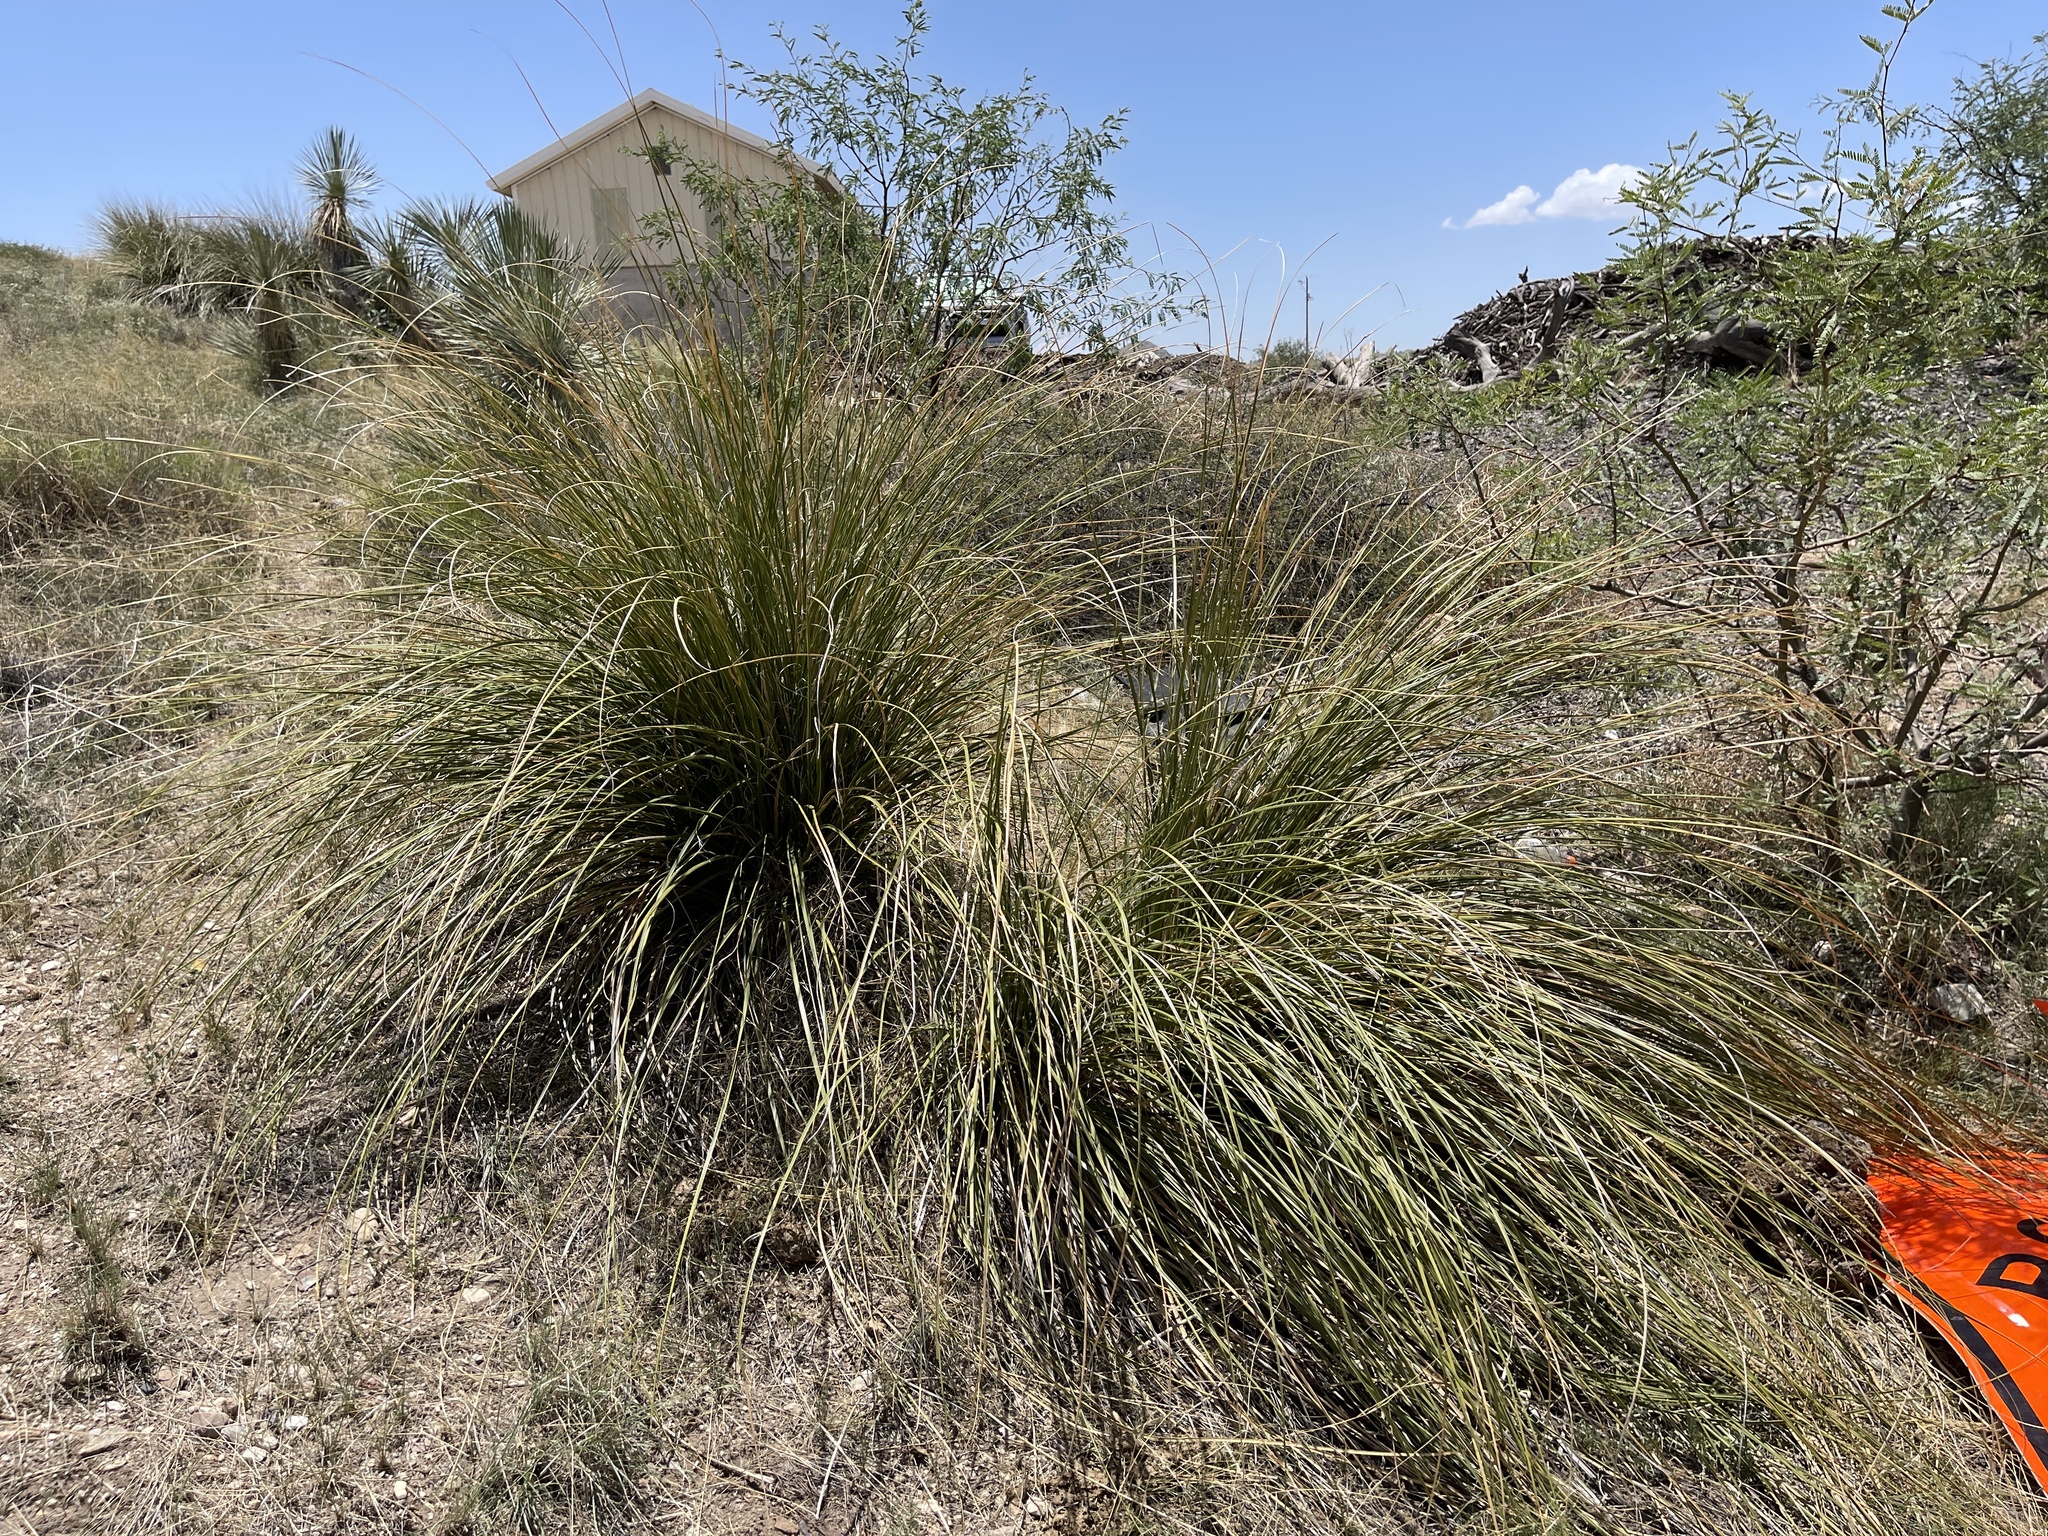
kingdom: Plantae
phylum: Tracheophyta
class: Liliopsida
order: Asparagales
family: Asparagaceae
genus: Nolina
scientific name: Nolina microcarpa
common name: Bear-grass
